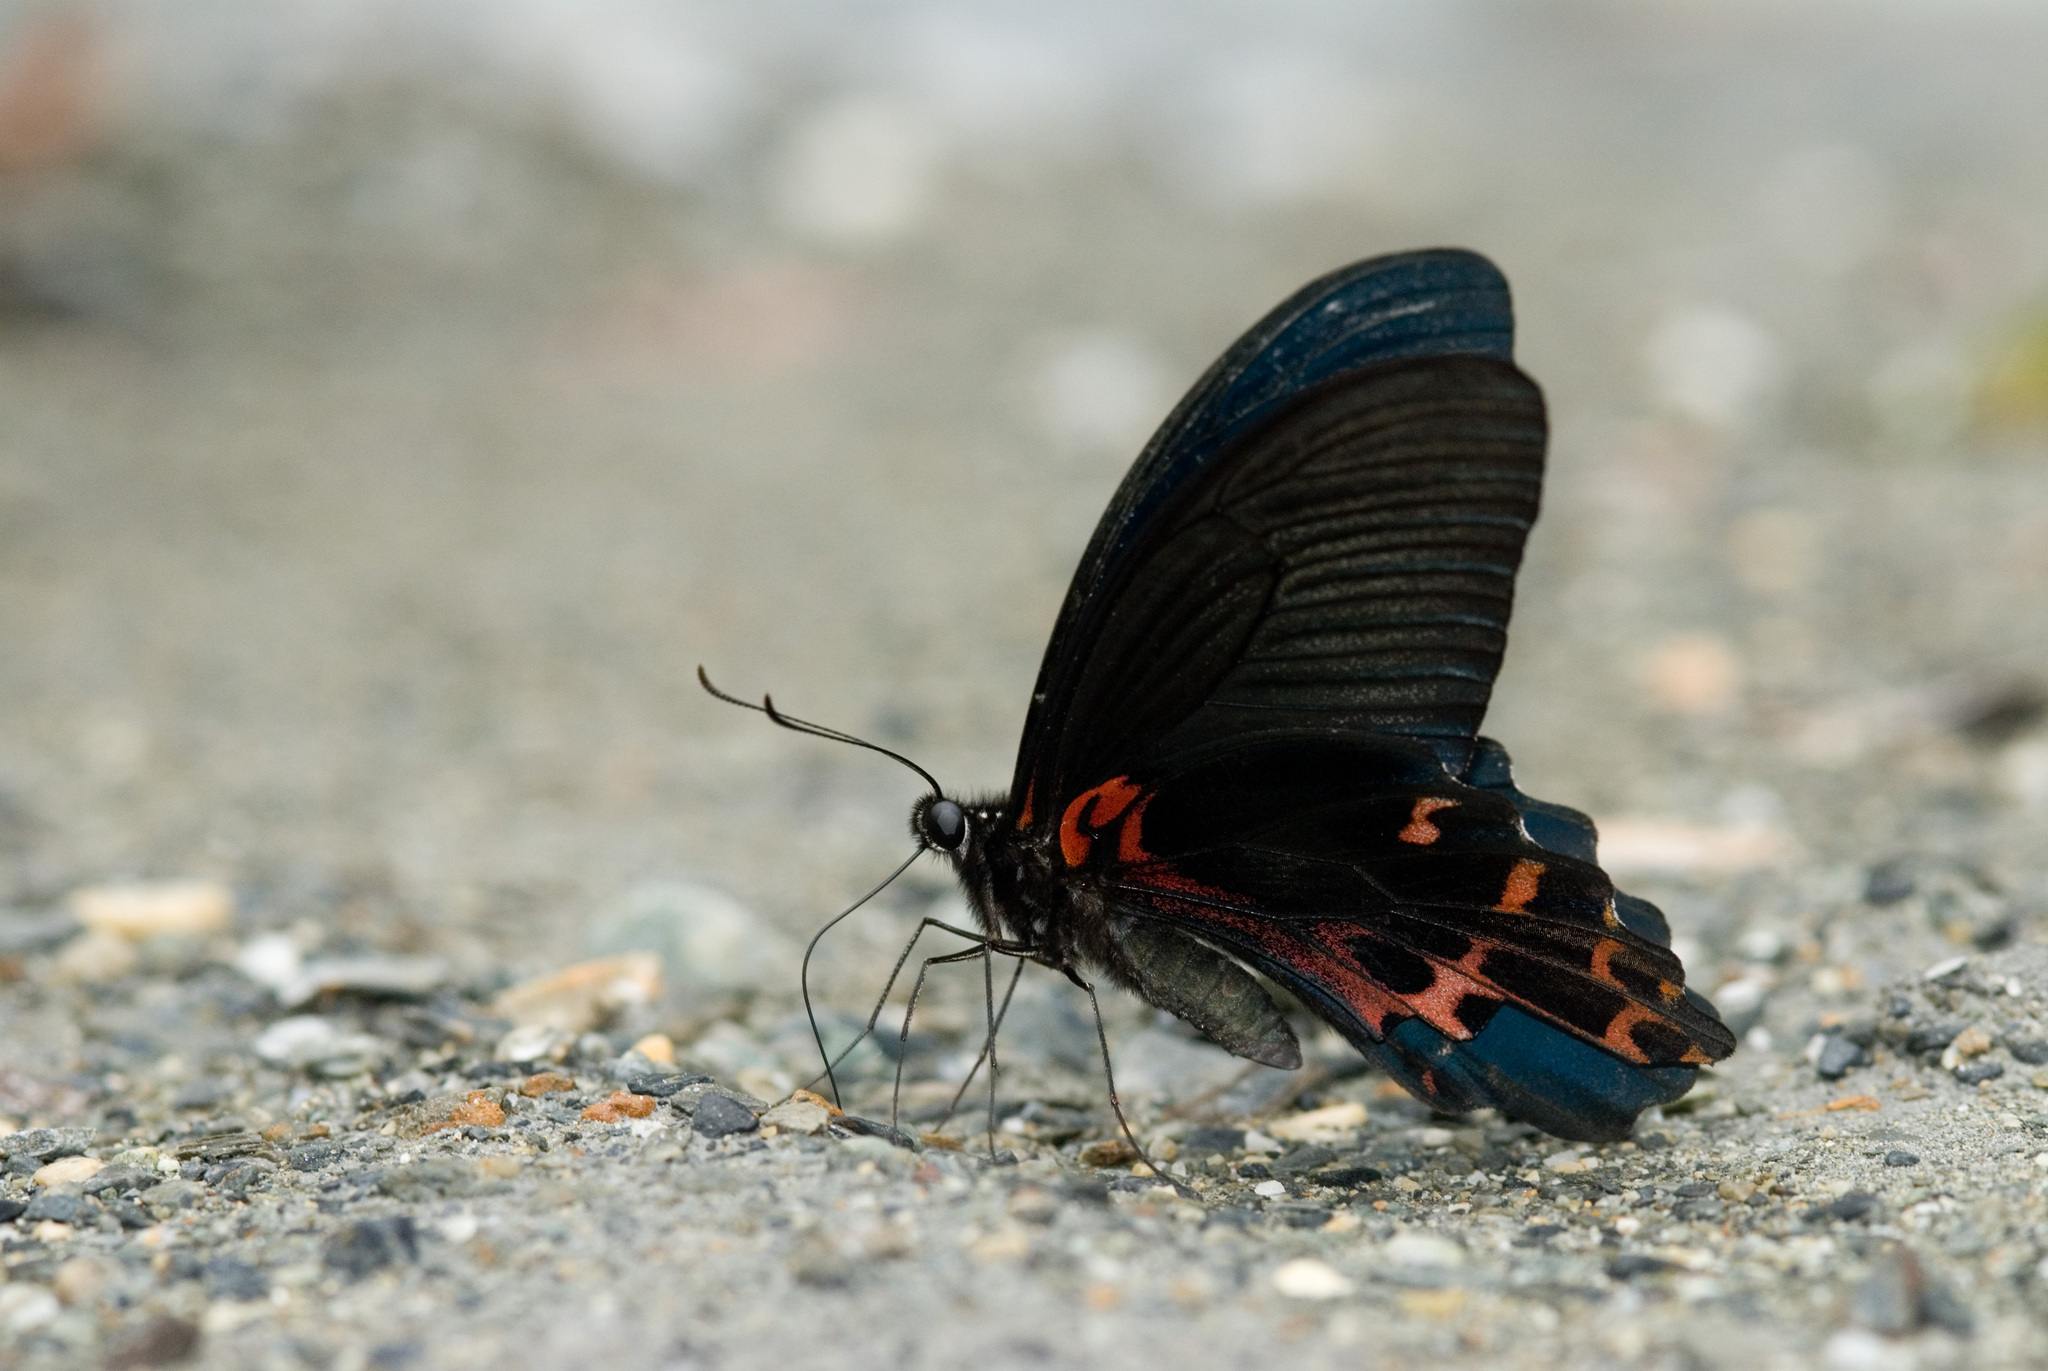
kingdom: Animalia
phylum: Arthropoda
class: Insecta
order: Lepidoptera
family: Papilionidae
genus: Papilio
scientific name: Papilio thaiwanus
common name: Formosan swallowtail
